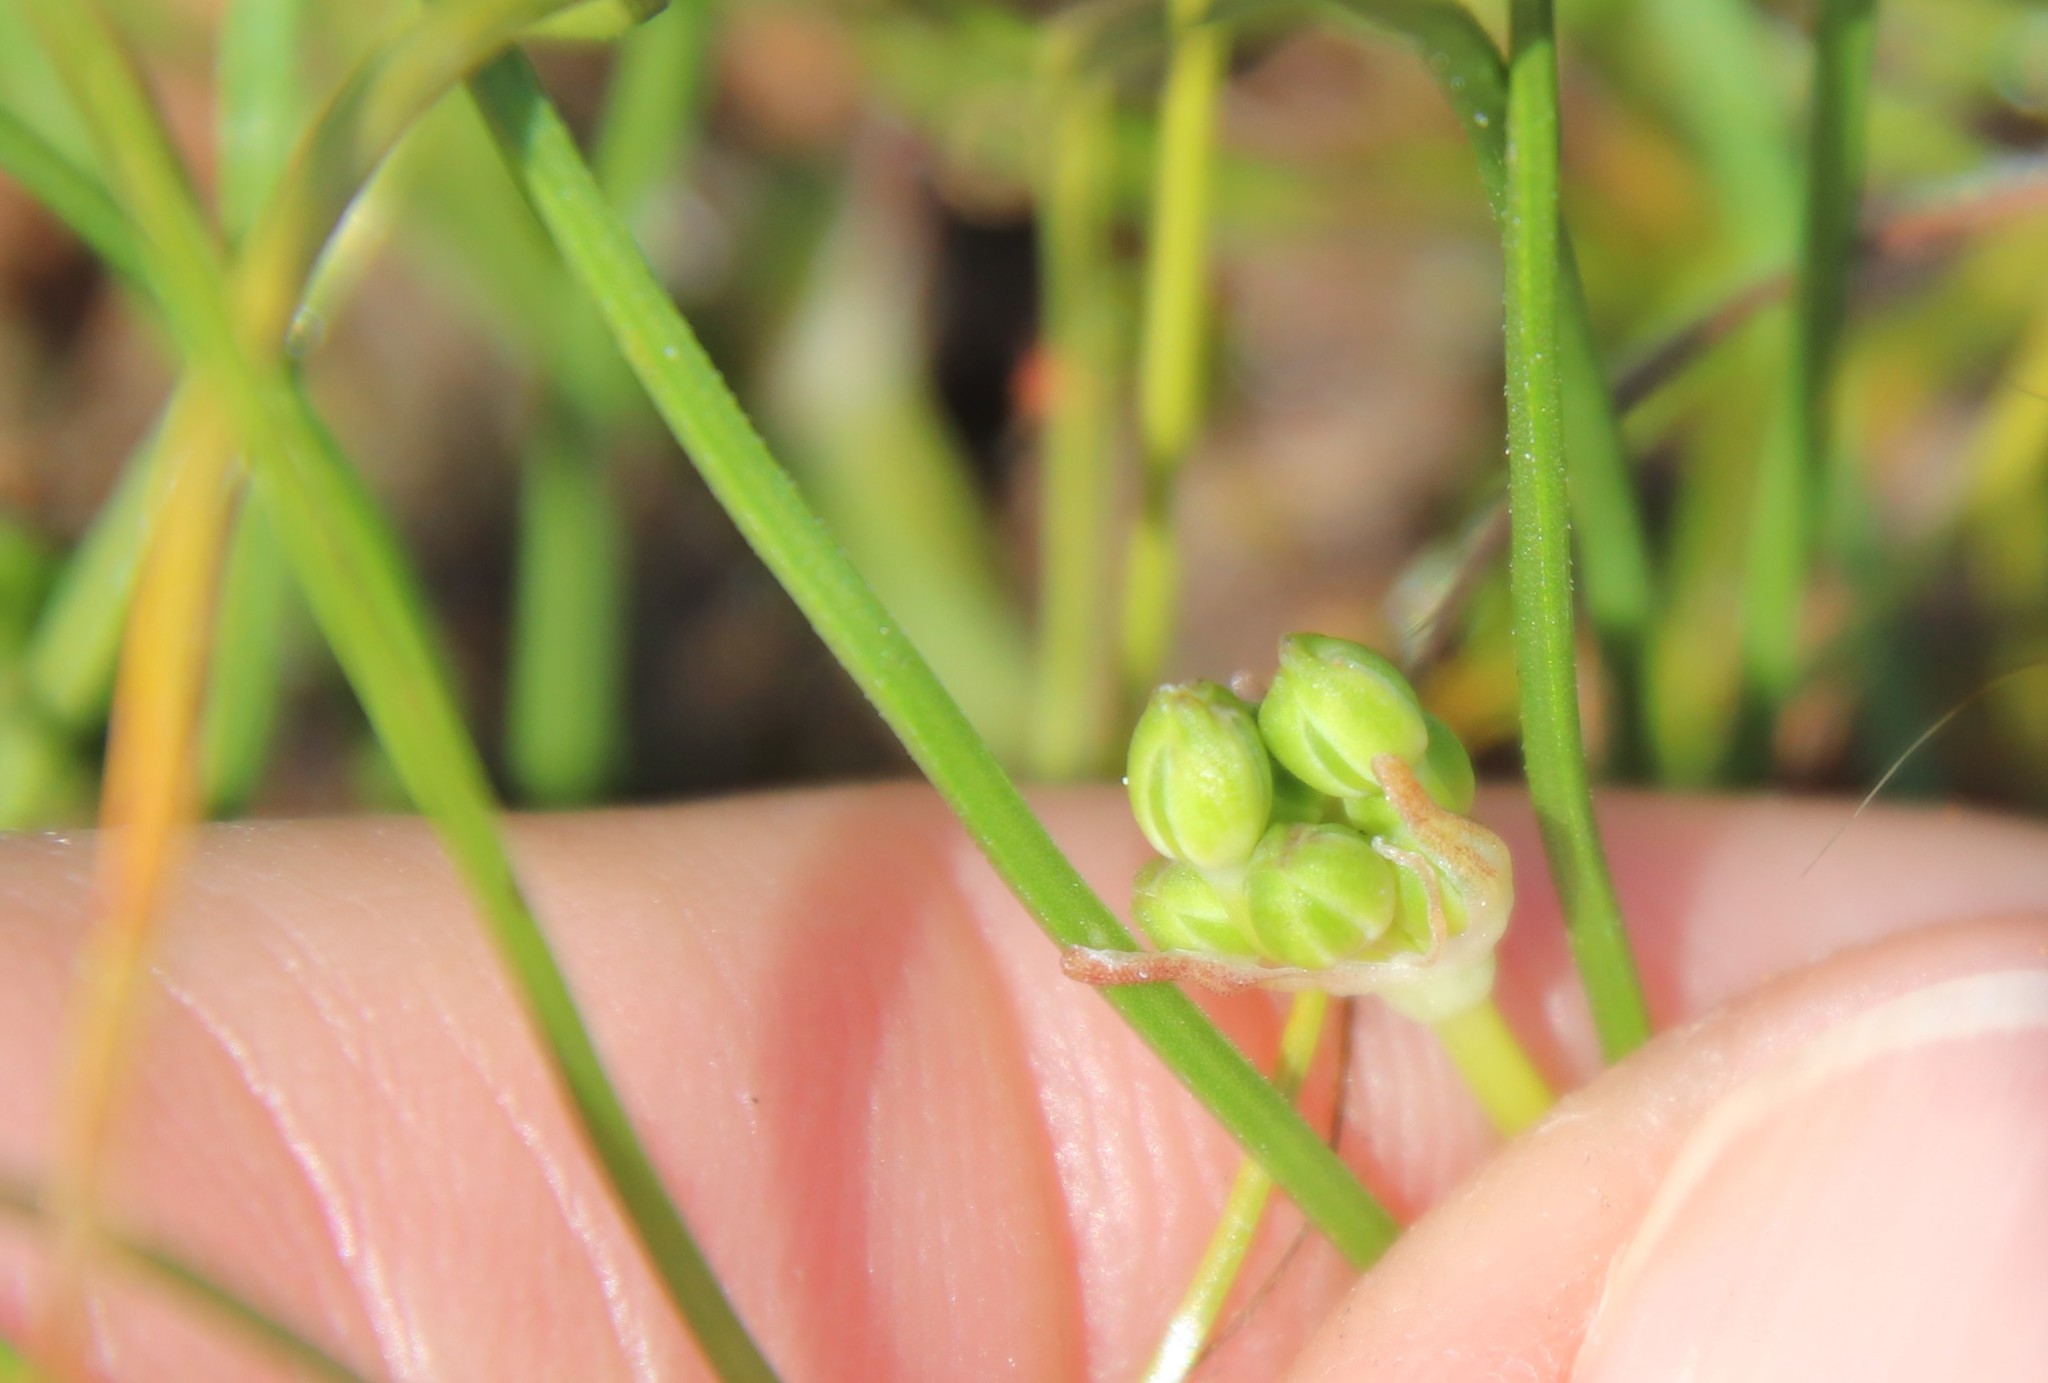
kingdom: Plantae
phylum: Tracheophyta
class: Liliopsida
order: Asparagales
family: Asparagaceae
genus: Muilla
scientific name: Muilla maritima
